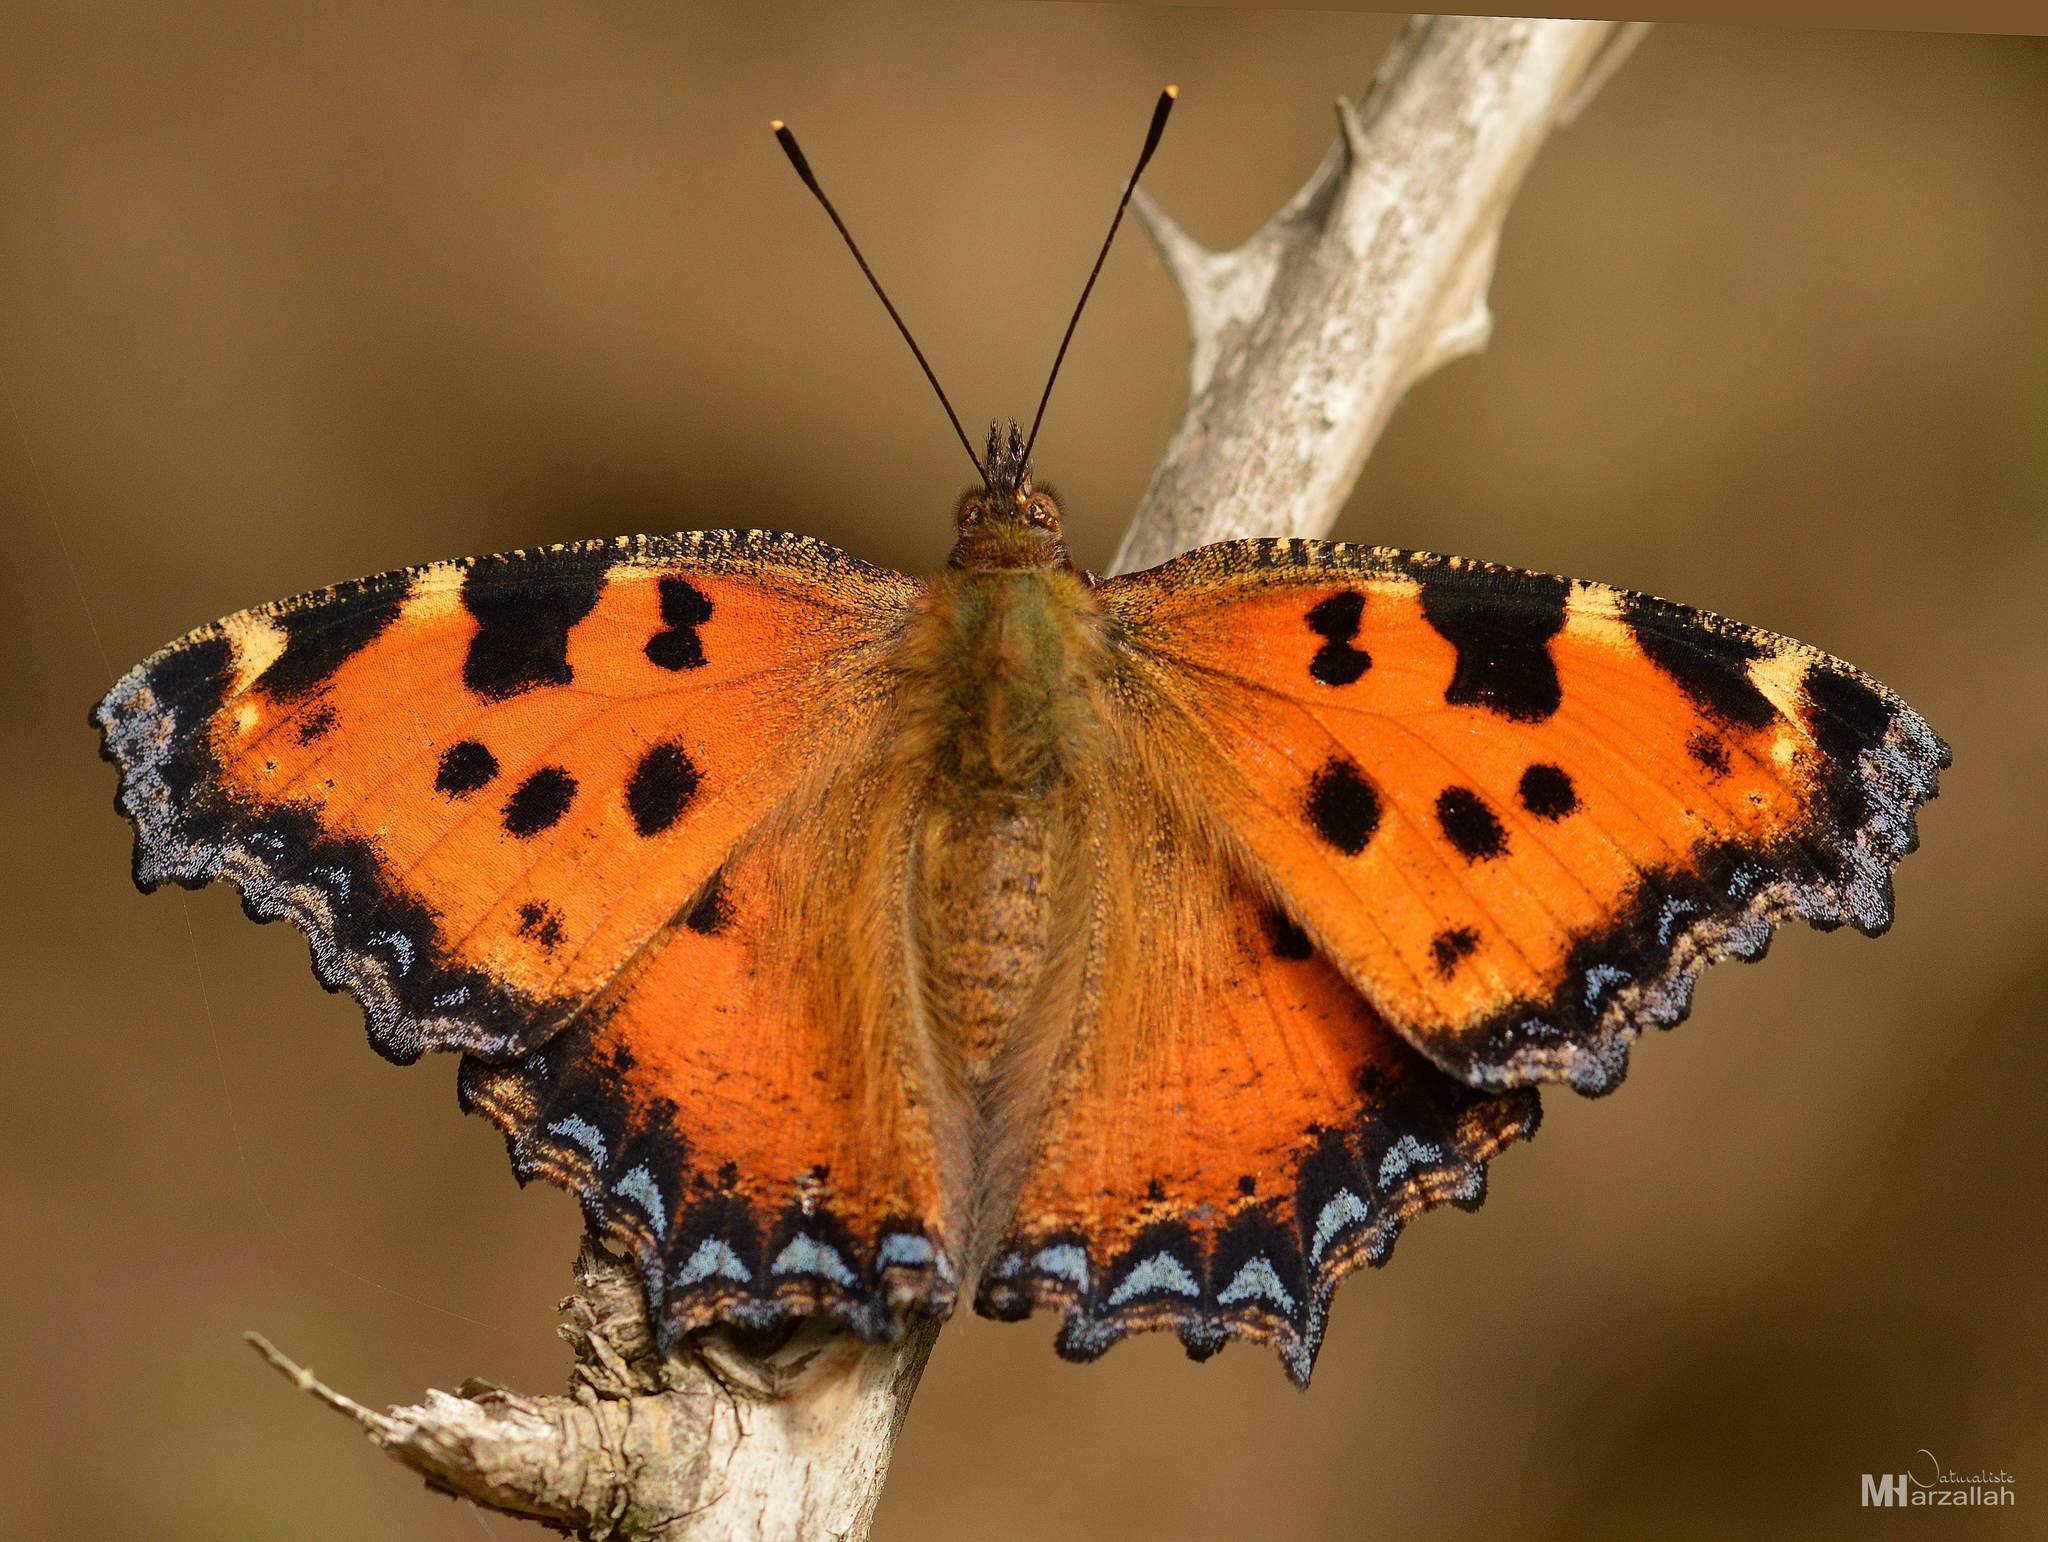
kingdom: Animalia
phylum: Arthropoda
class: Insecta
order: Lepidoptera
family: Nymphalidae
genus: Nymphalis
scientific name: Nymphalis polychloros
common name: Large tortoiseshell
